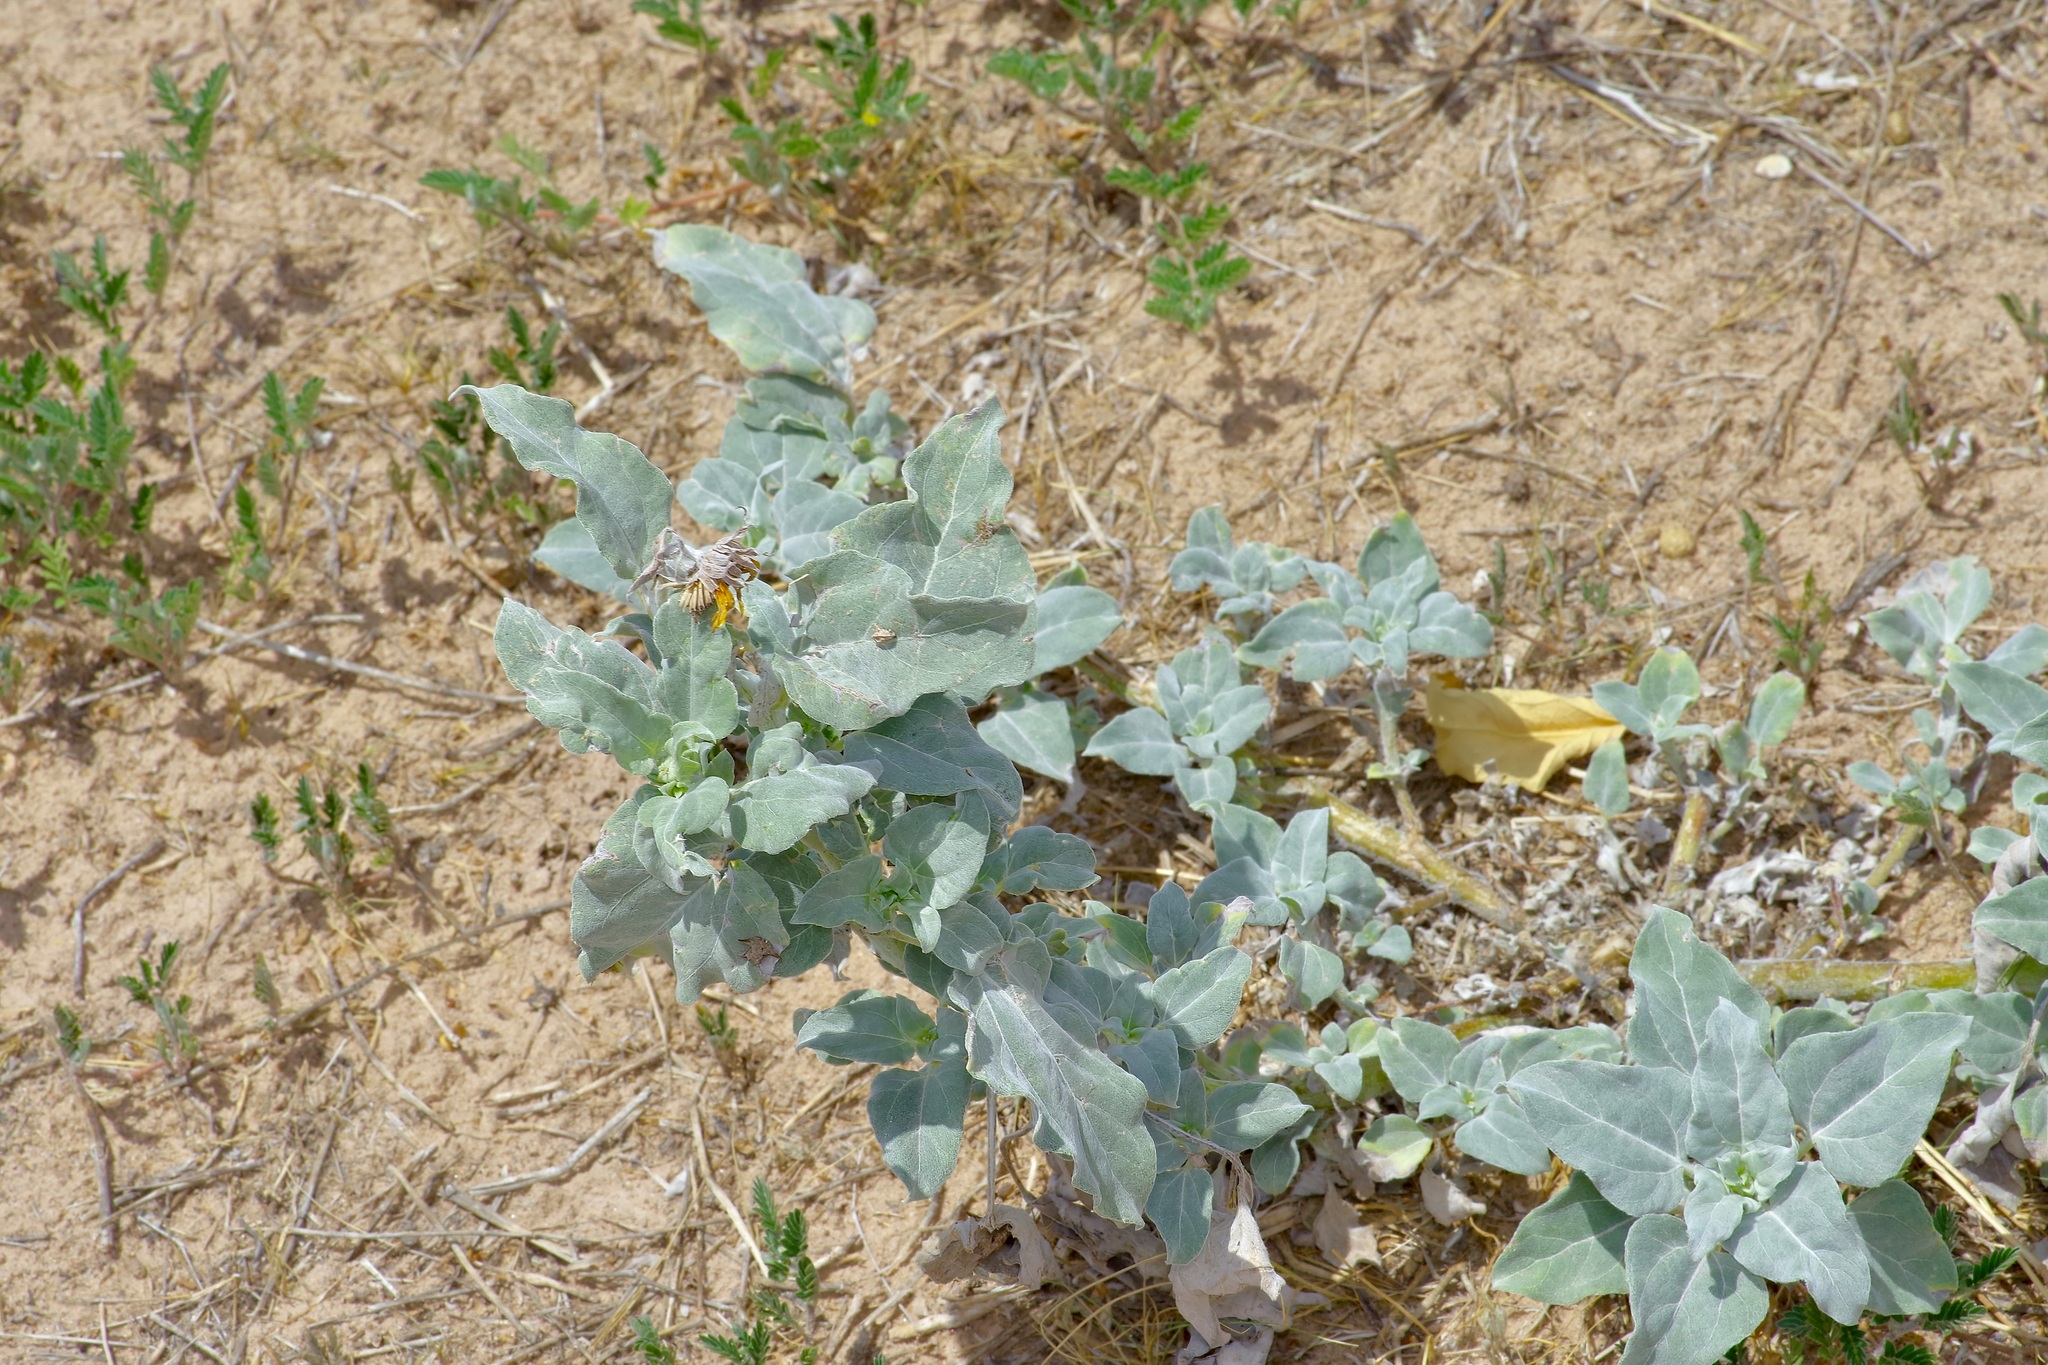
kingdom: Plantae
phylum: Tracheophyta
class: Magnoliopsida
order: Asterales
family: Asteraceae
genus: Helianthus
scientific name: Helianthus petiolaris
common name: Lesser sunflower
